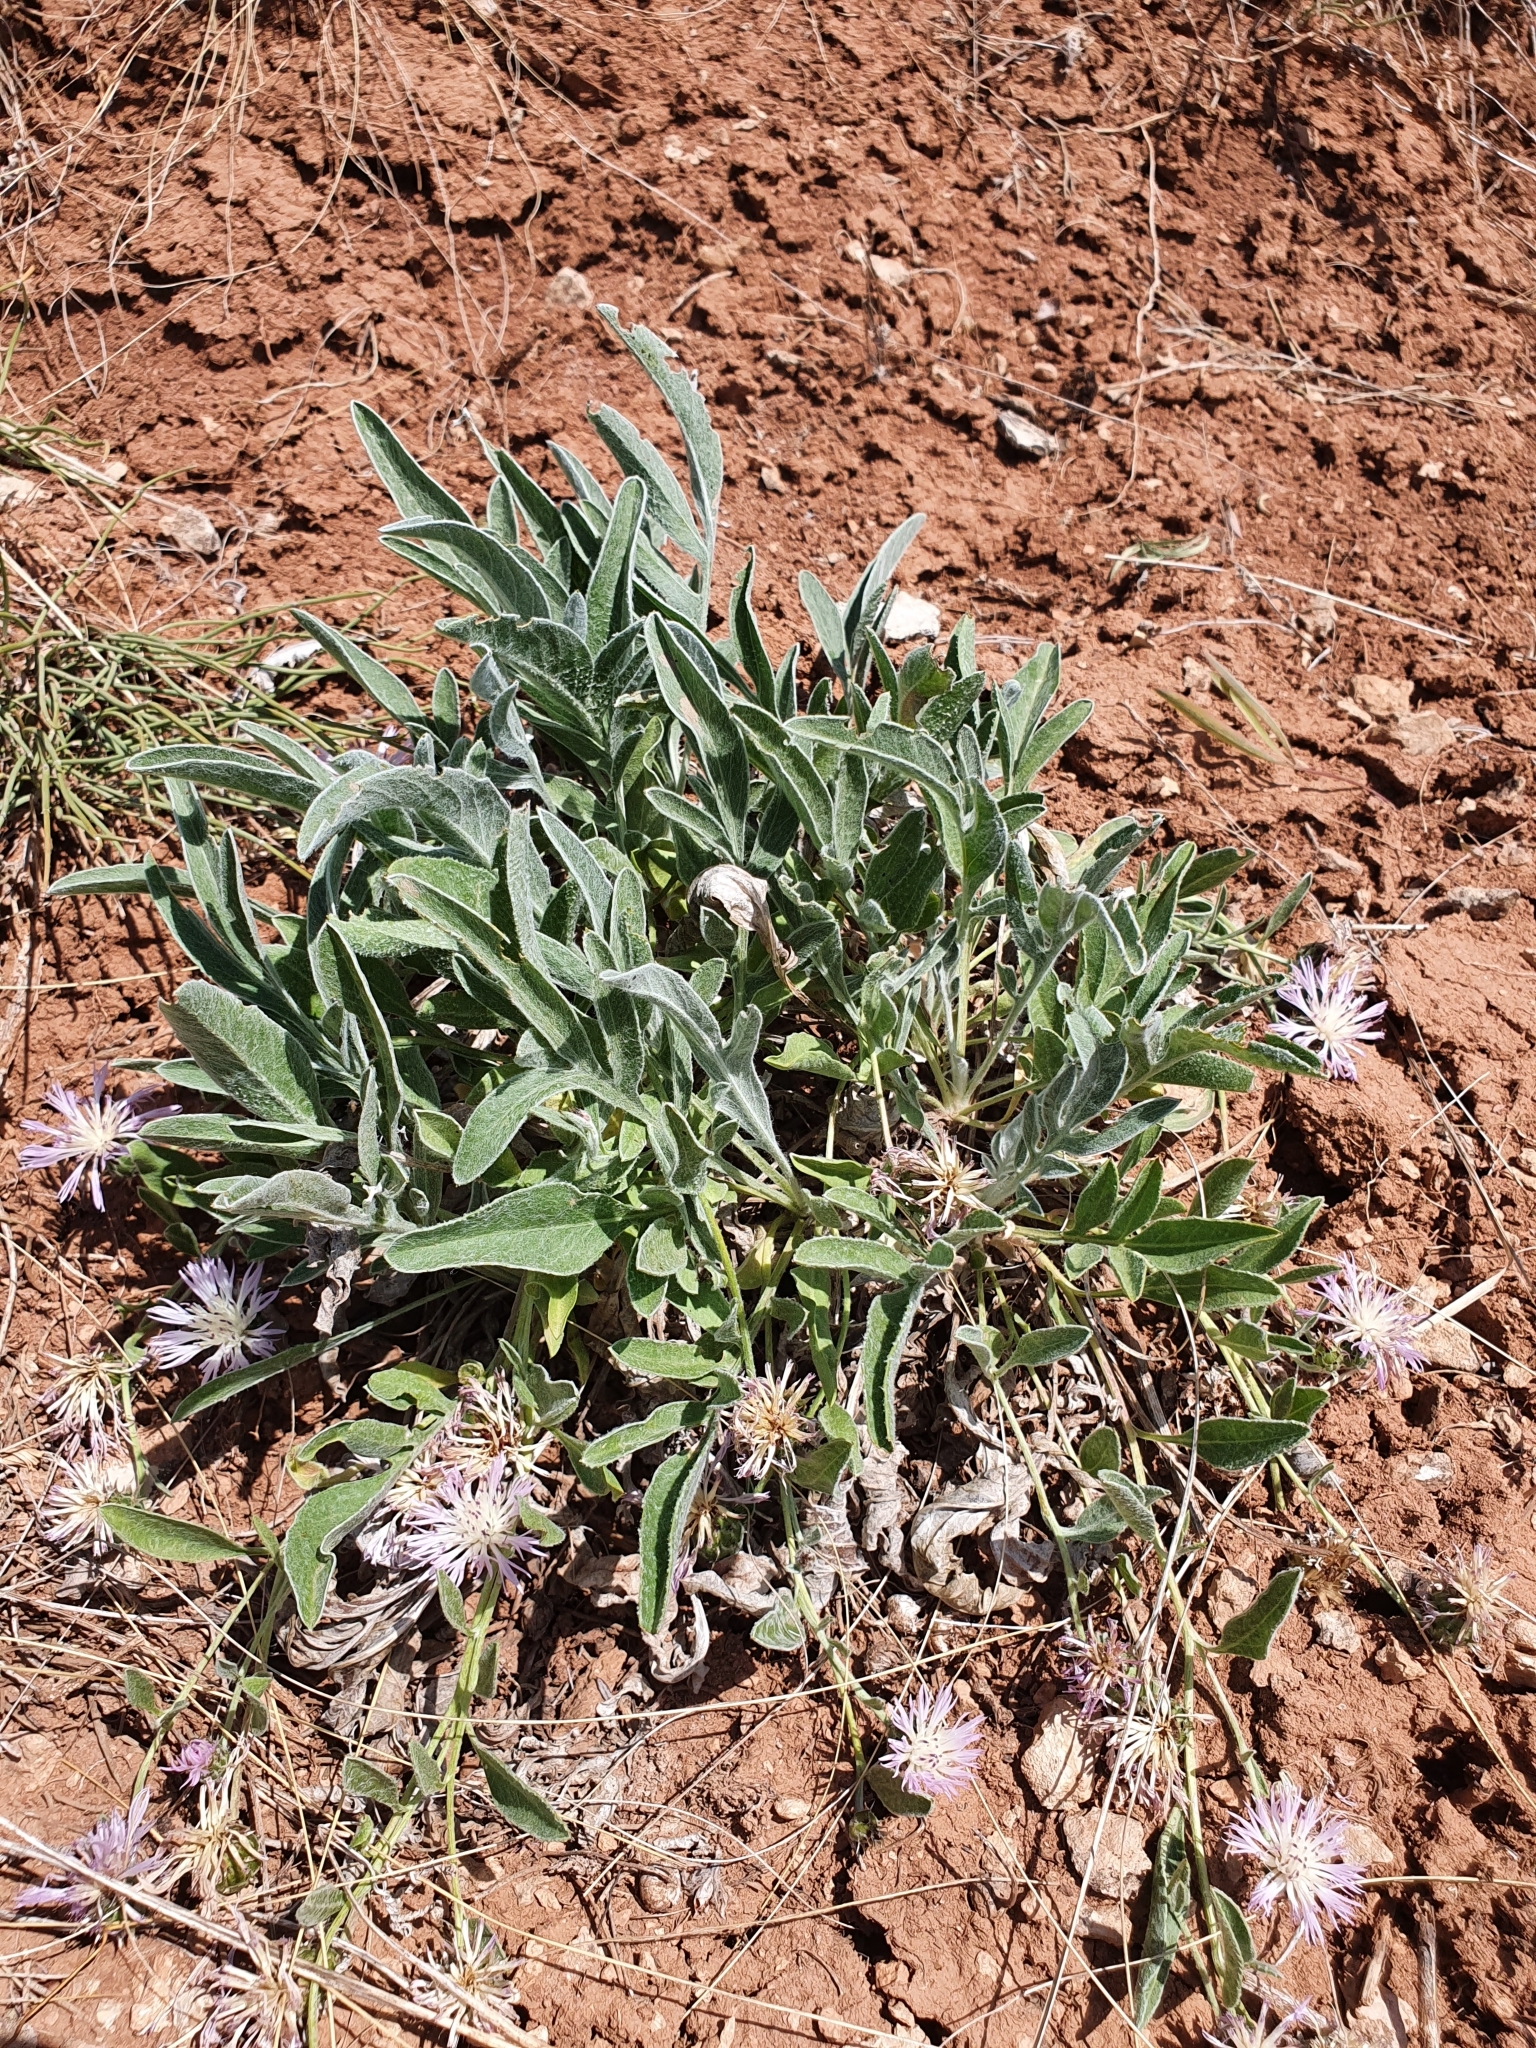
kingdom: Plantae
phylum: Tracheophyta
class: Magnoliopsida
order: Asterales
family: Asteraceae
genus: Psephellus
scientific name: Psephellus marschallianus
